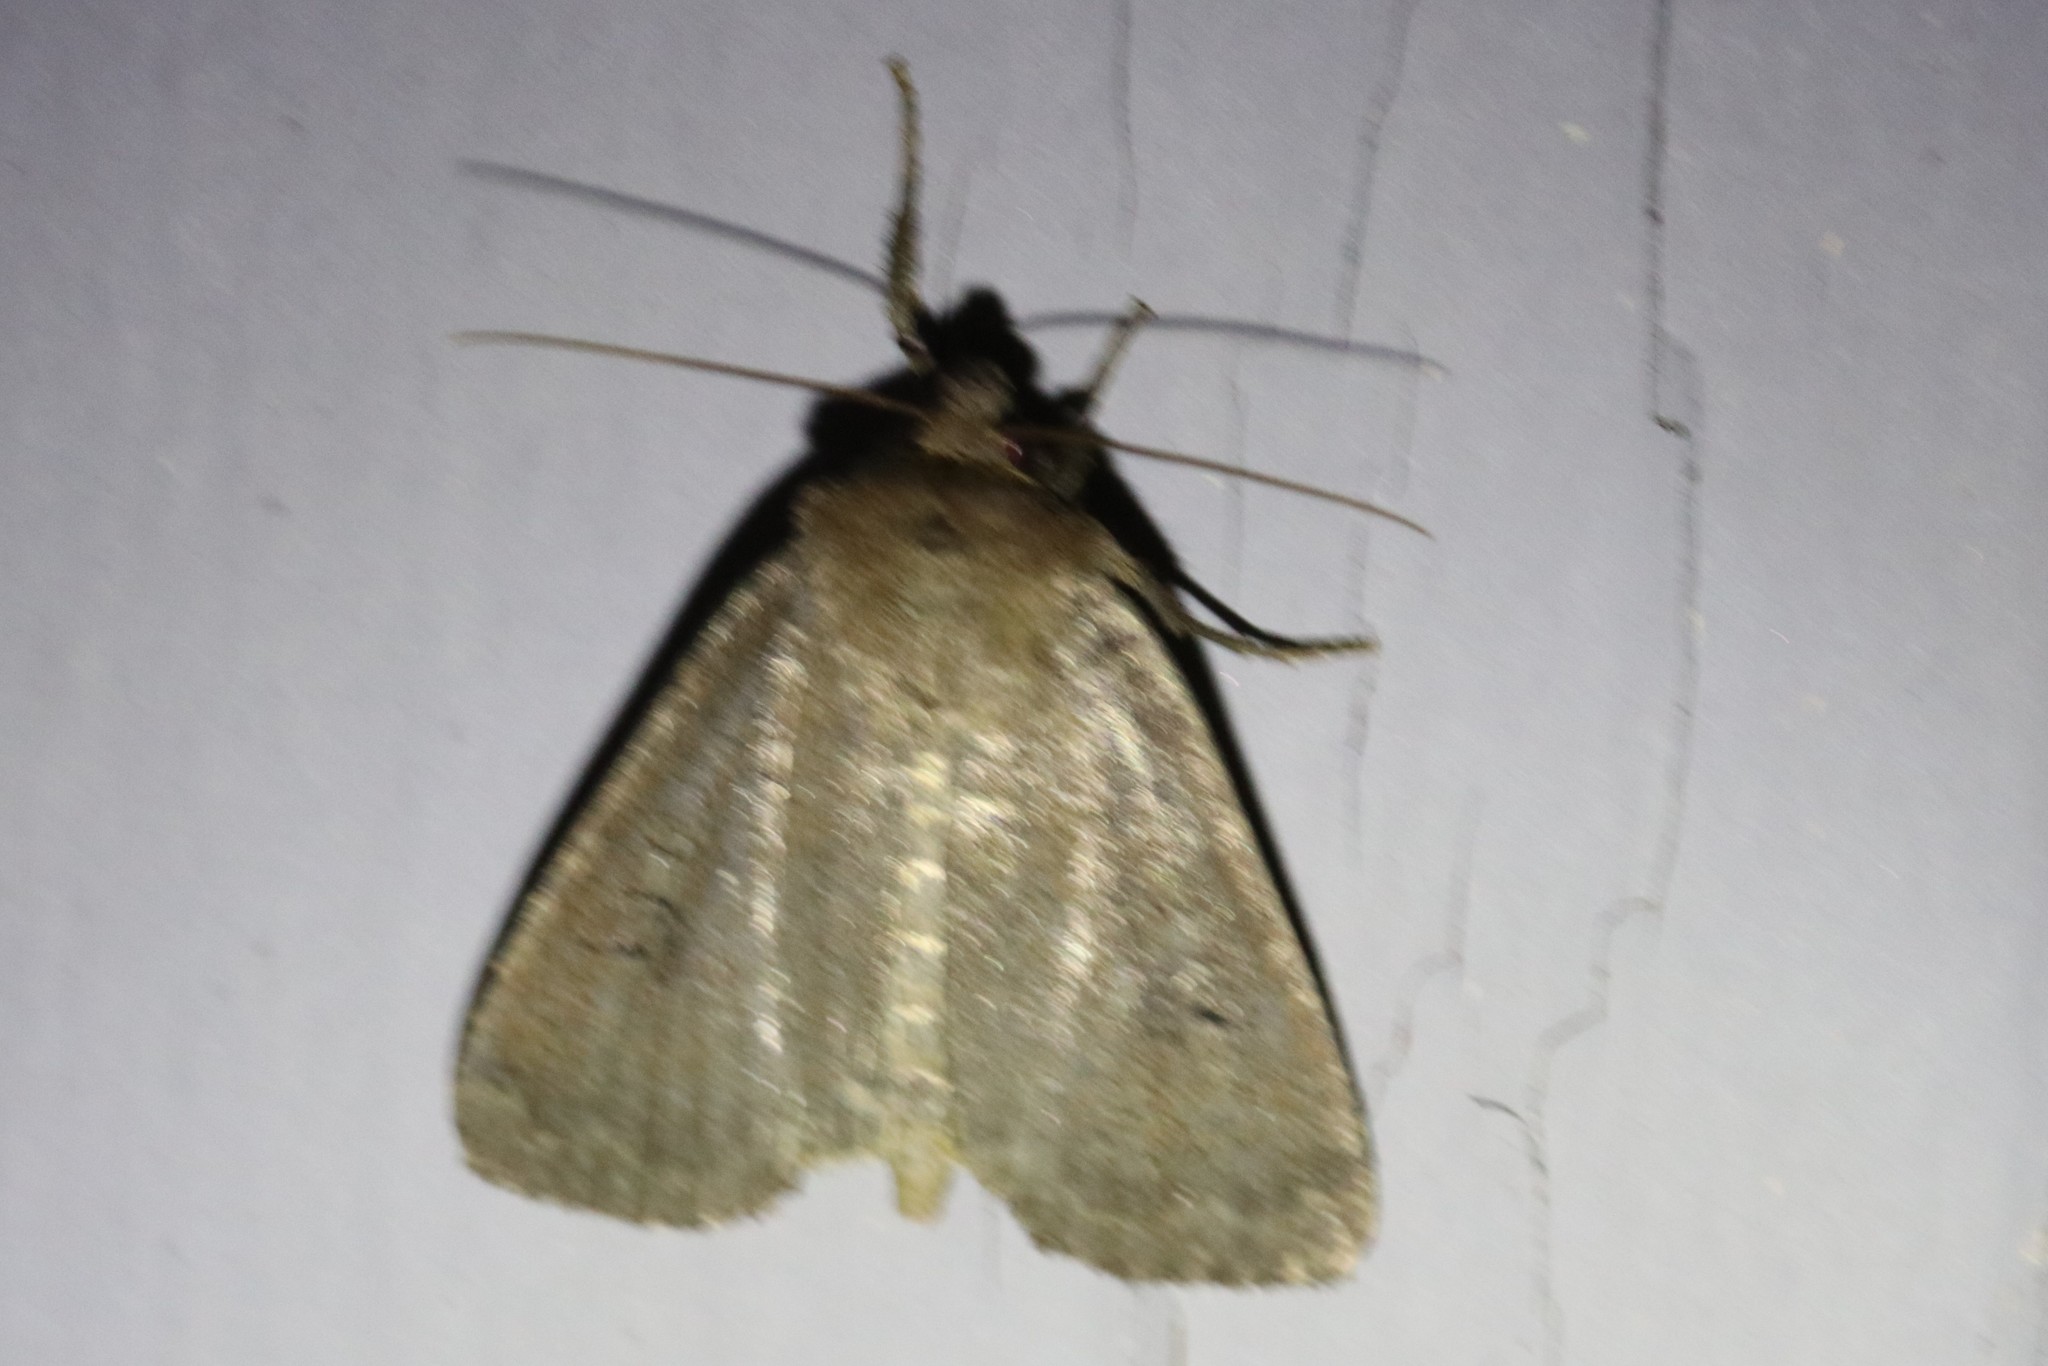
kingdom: Animalia
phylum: Arthropoda
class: Insecta
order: Lepidoptera
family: Noctuidae
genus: Graphiphora
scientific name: Graphiphora augur
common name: Double dart
